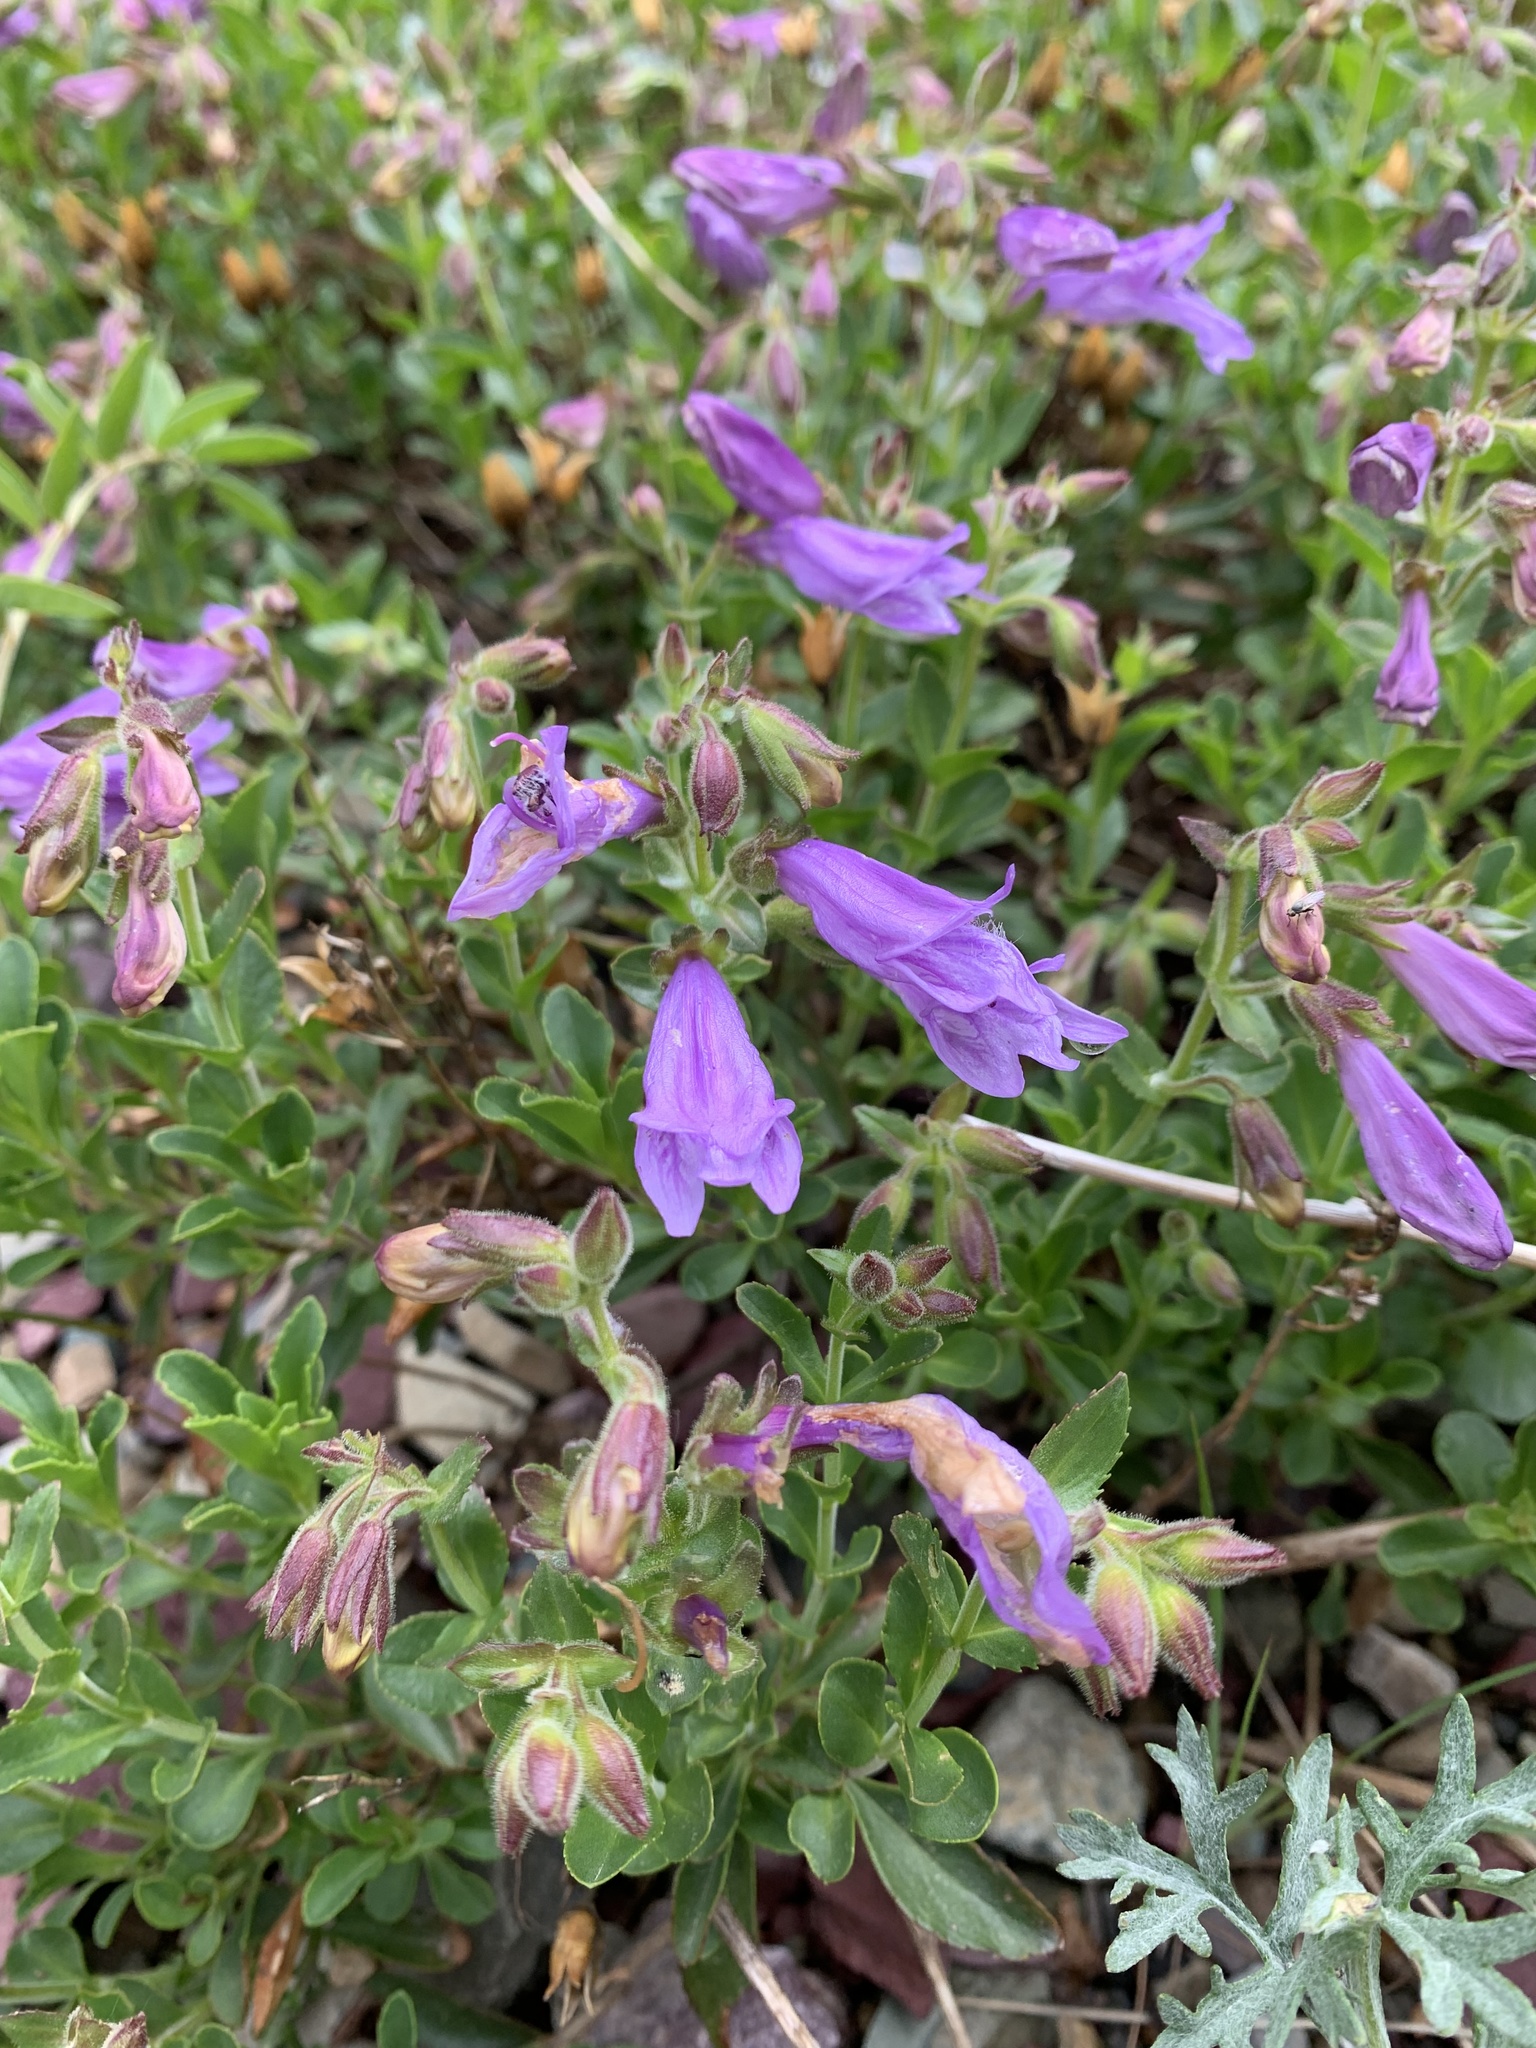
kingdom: Plantae
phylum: Tracheophyta
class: Magnoliopsida
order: Lamiales
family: Plantaginaceae
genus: Penstemon
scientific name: Penstemon ellipticus
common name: Alpine beardtongue
